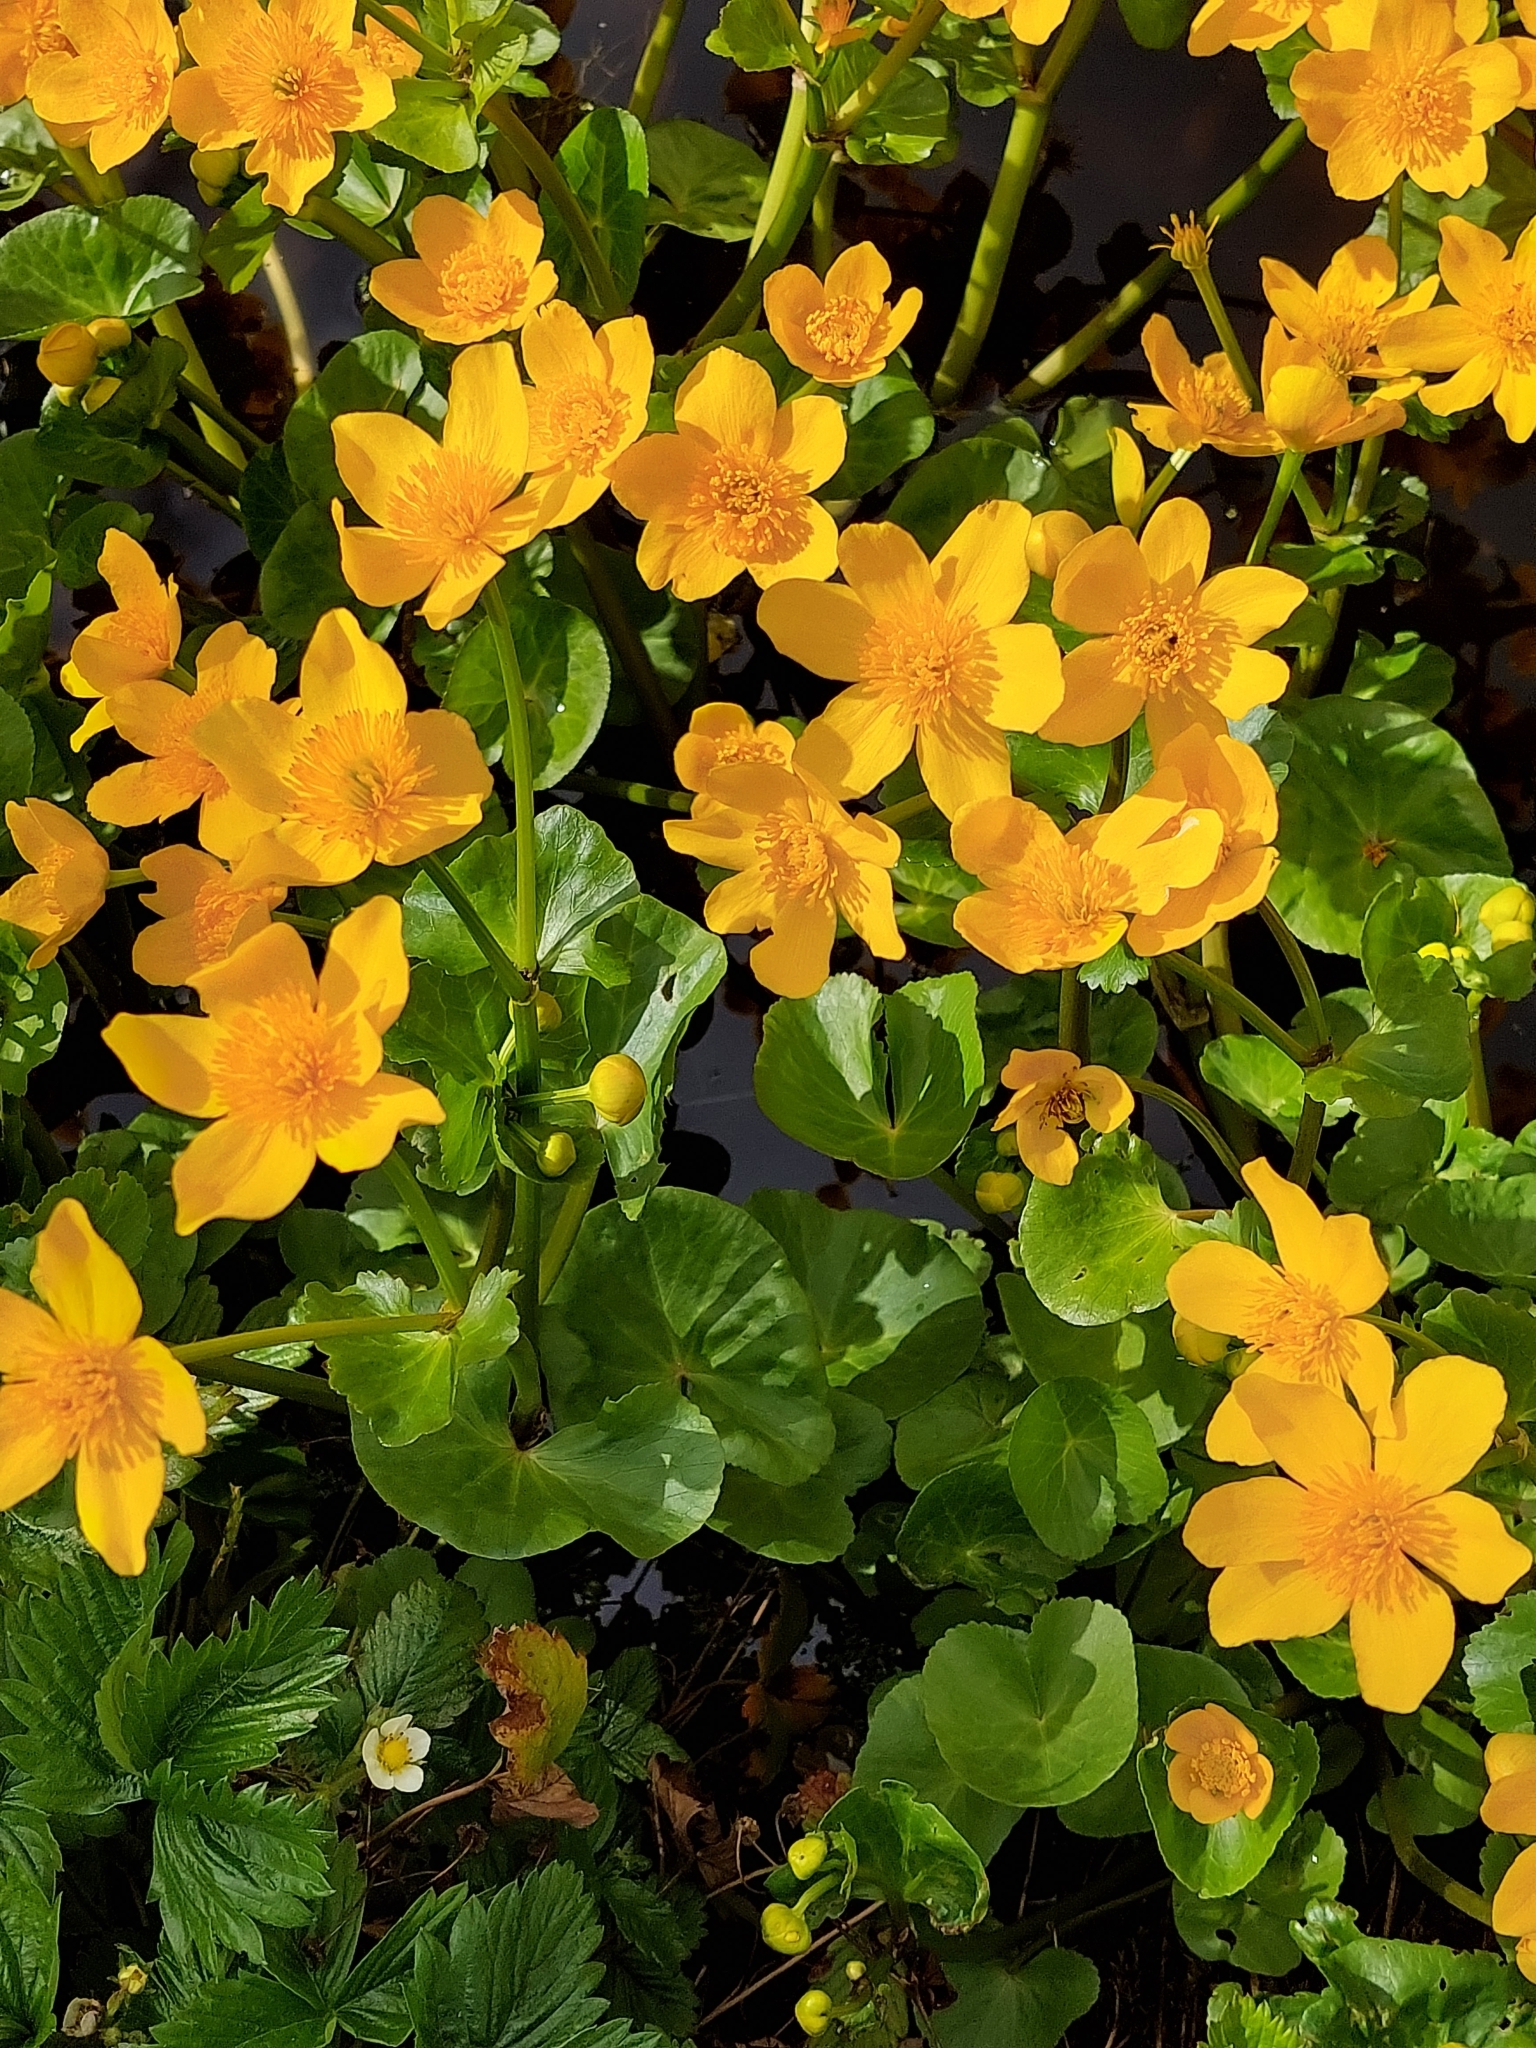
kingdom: Plantae
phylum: Tracheophyta
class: Magnoliopsida
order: Ranunculales
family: Ranunculaceae
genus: Caltha
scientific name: Caltha palustris
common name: Marsh marigold
